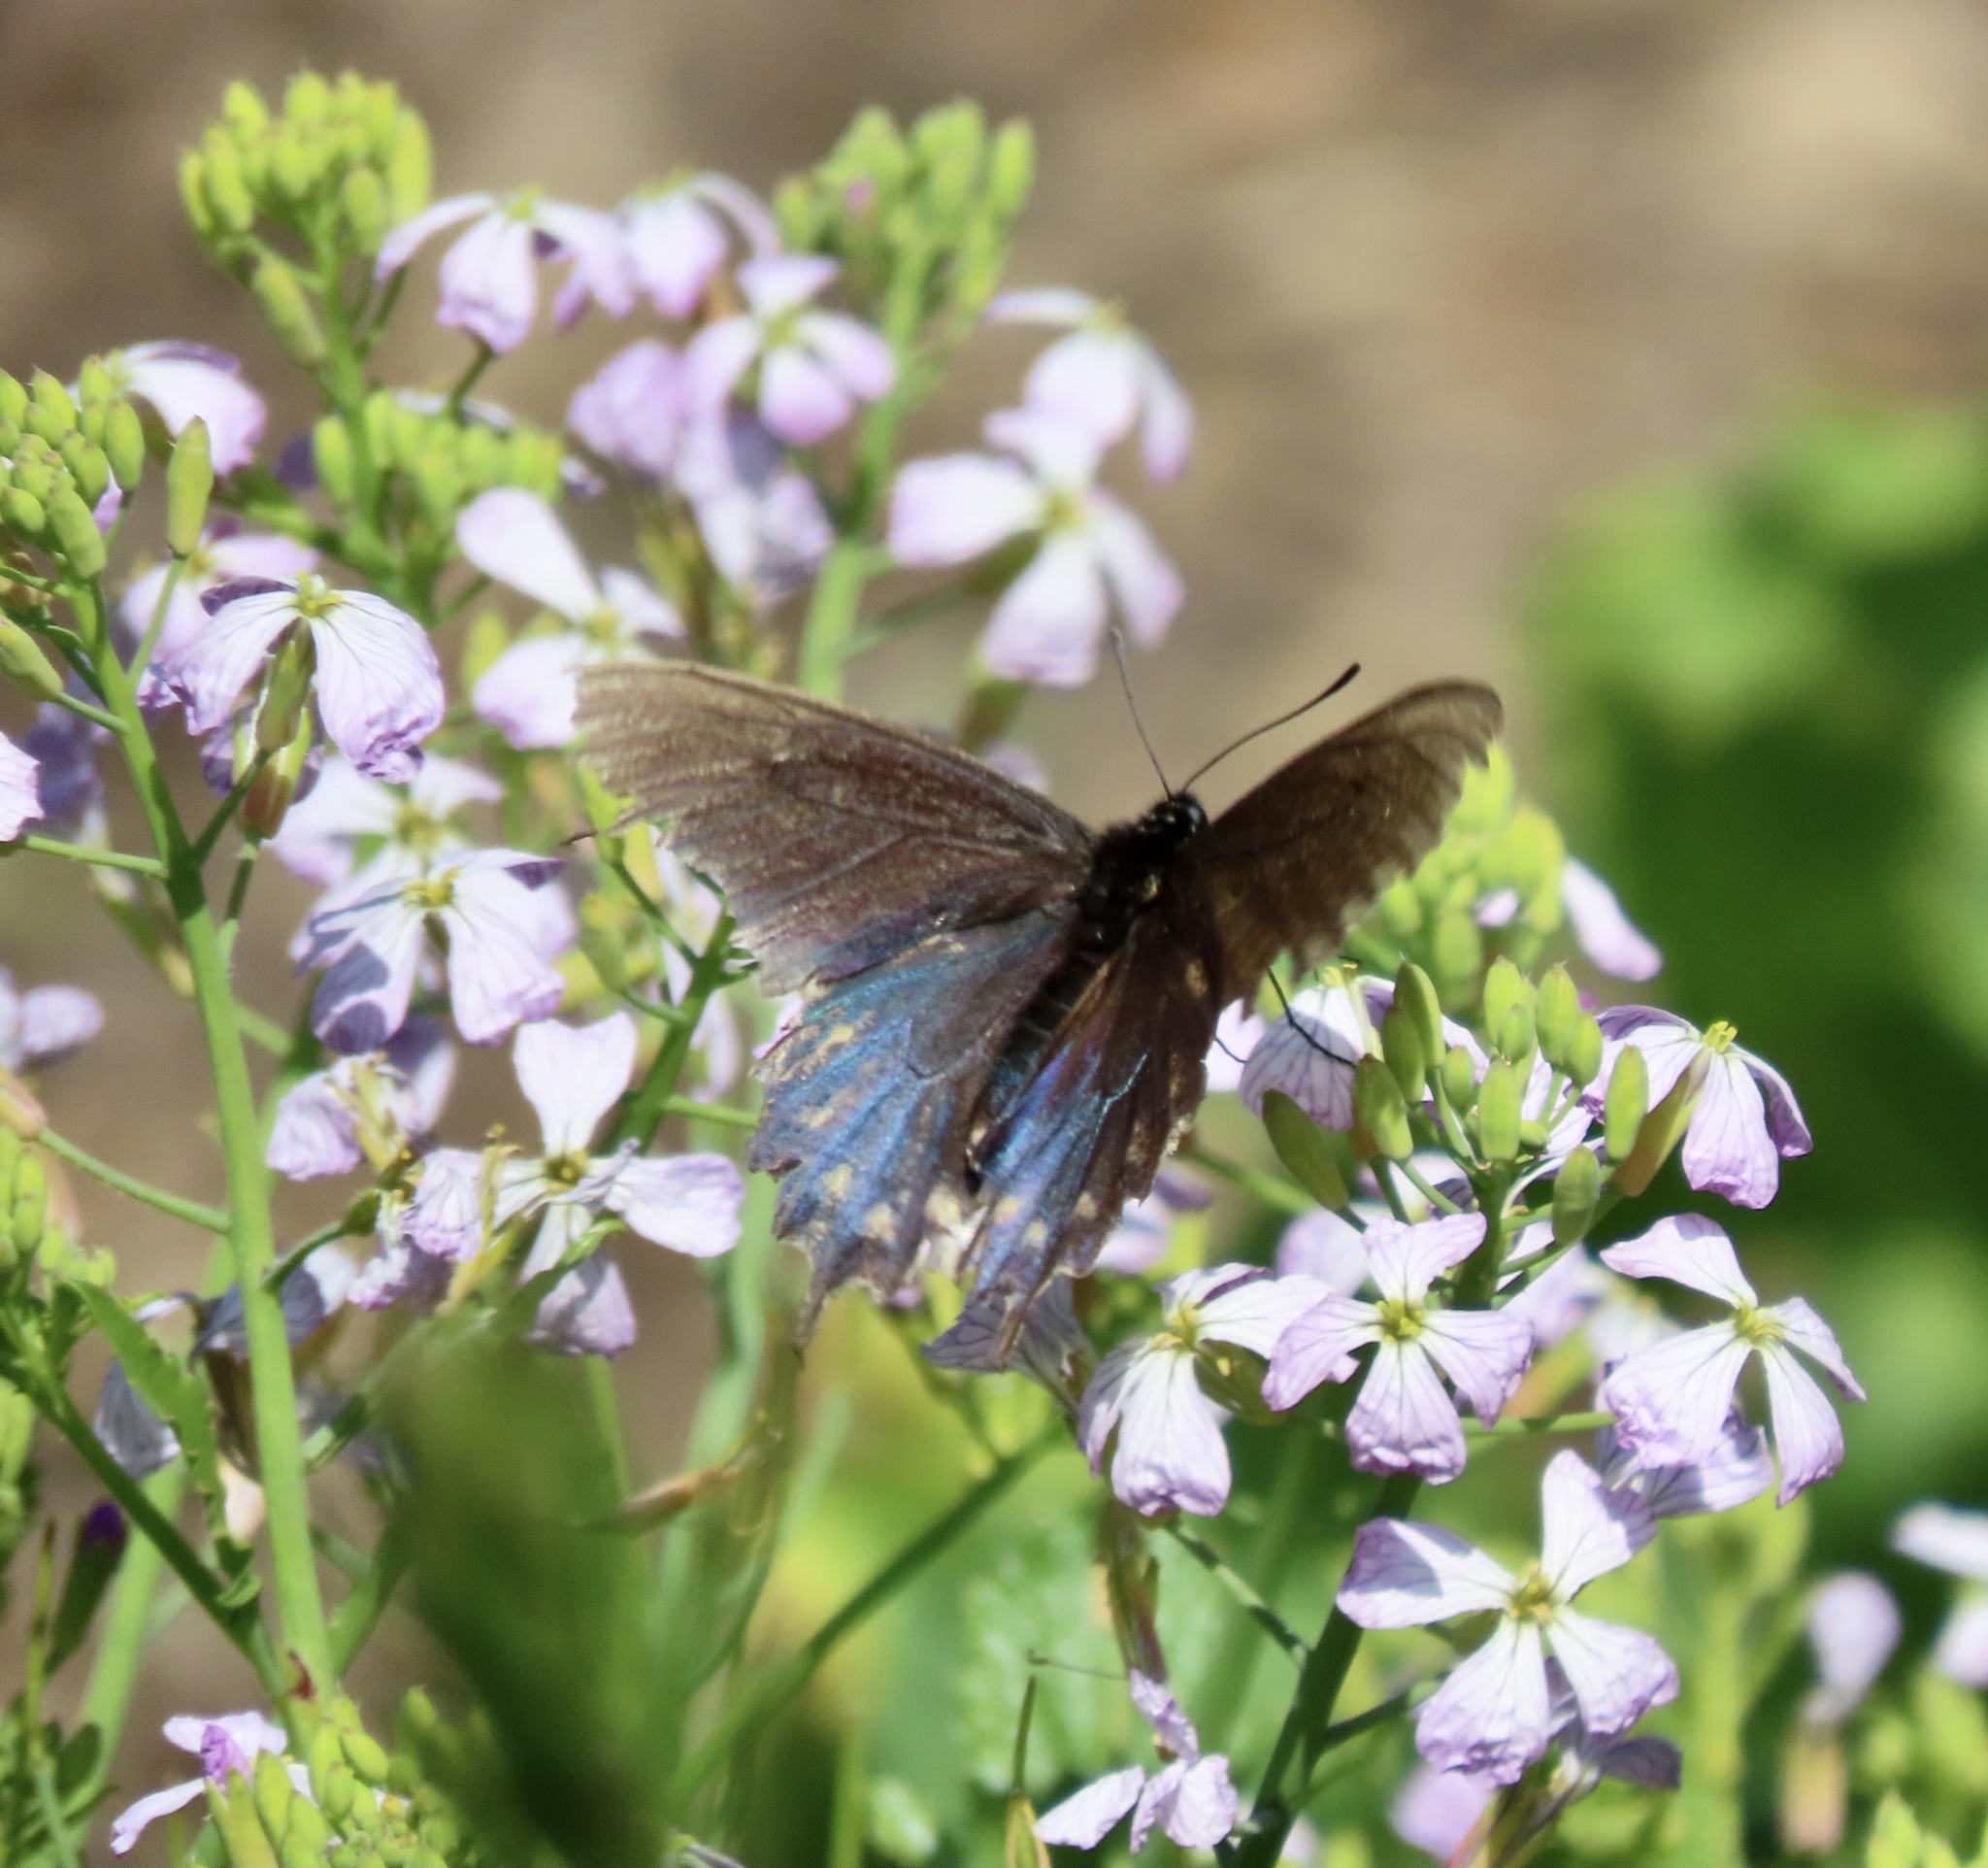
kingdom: Animalia
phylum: Arthropoda
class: Insecta
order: Lepidoptera
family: Papilionidae
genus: Battus
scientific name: Battus philenor
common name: Pipevine swallowtail
